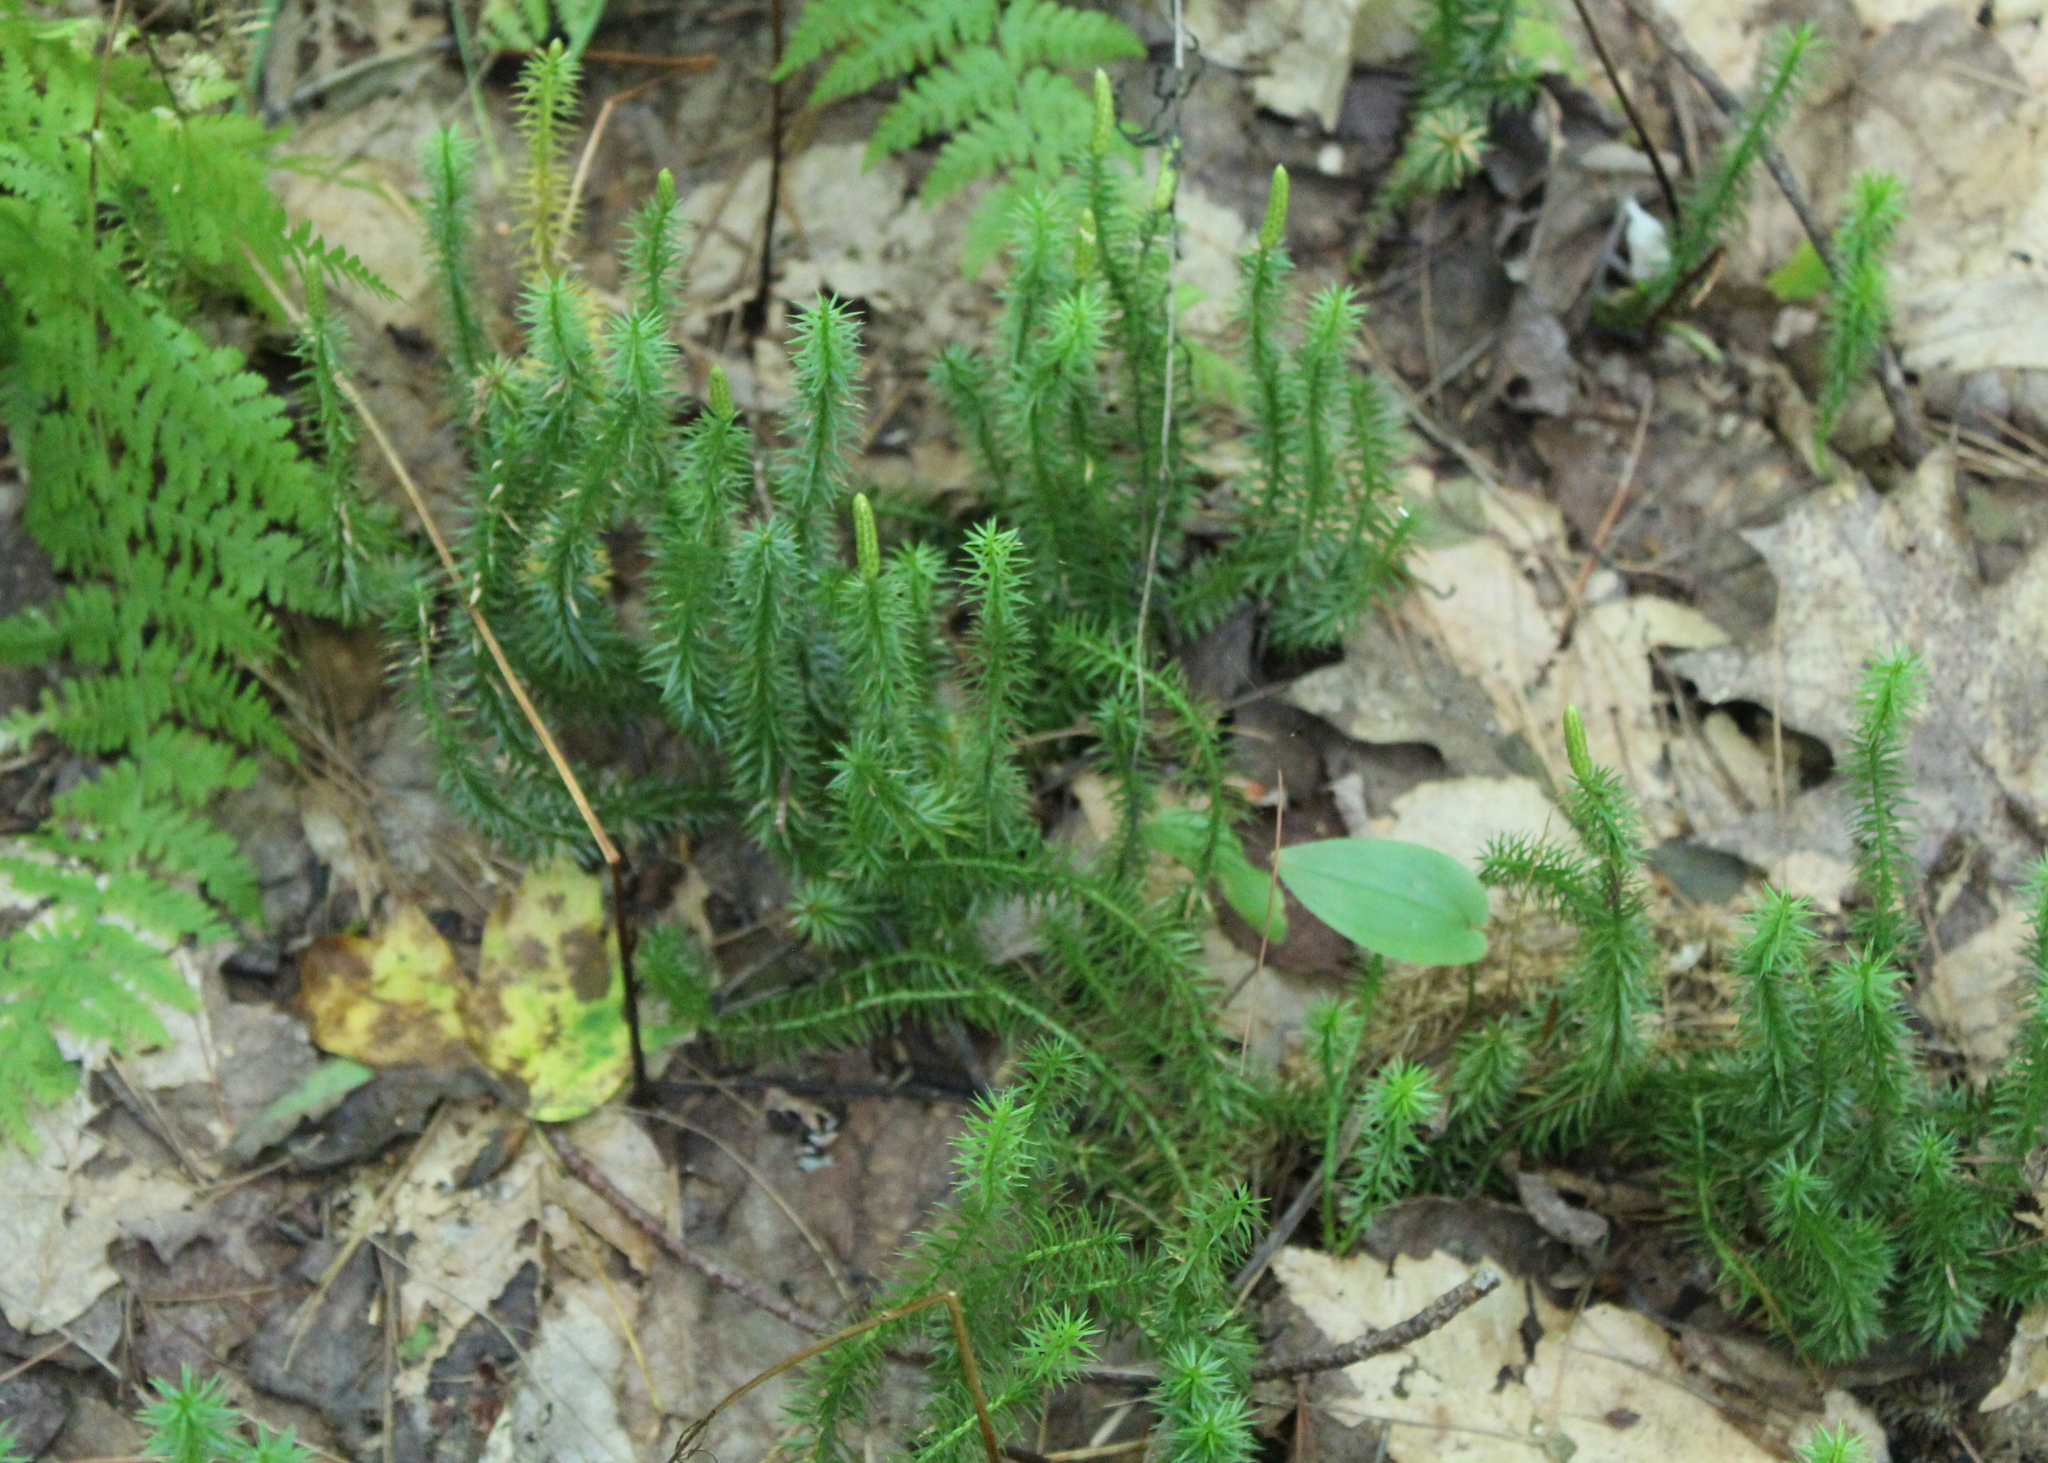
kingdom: Plantae
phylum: Tracheophyta
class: Lycopodiopsida
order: Lycopodiales
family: Lycopodiaceae
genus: Spinulum
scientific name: Spinulum annotinum
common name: Interrupted club-moss
